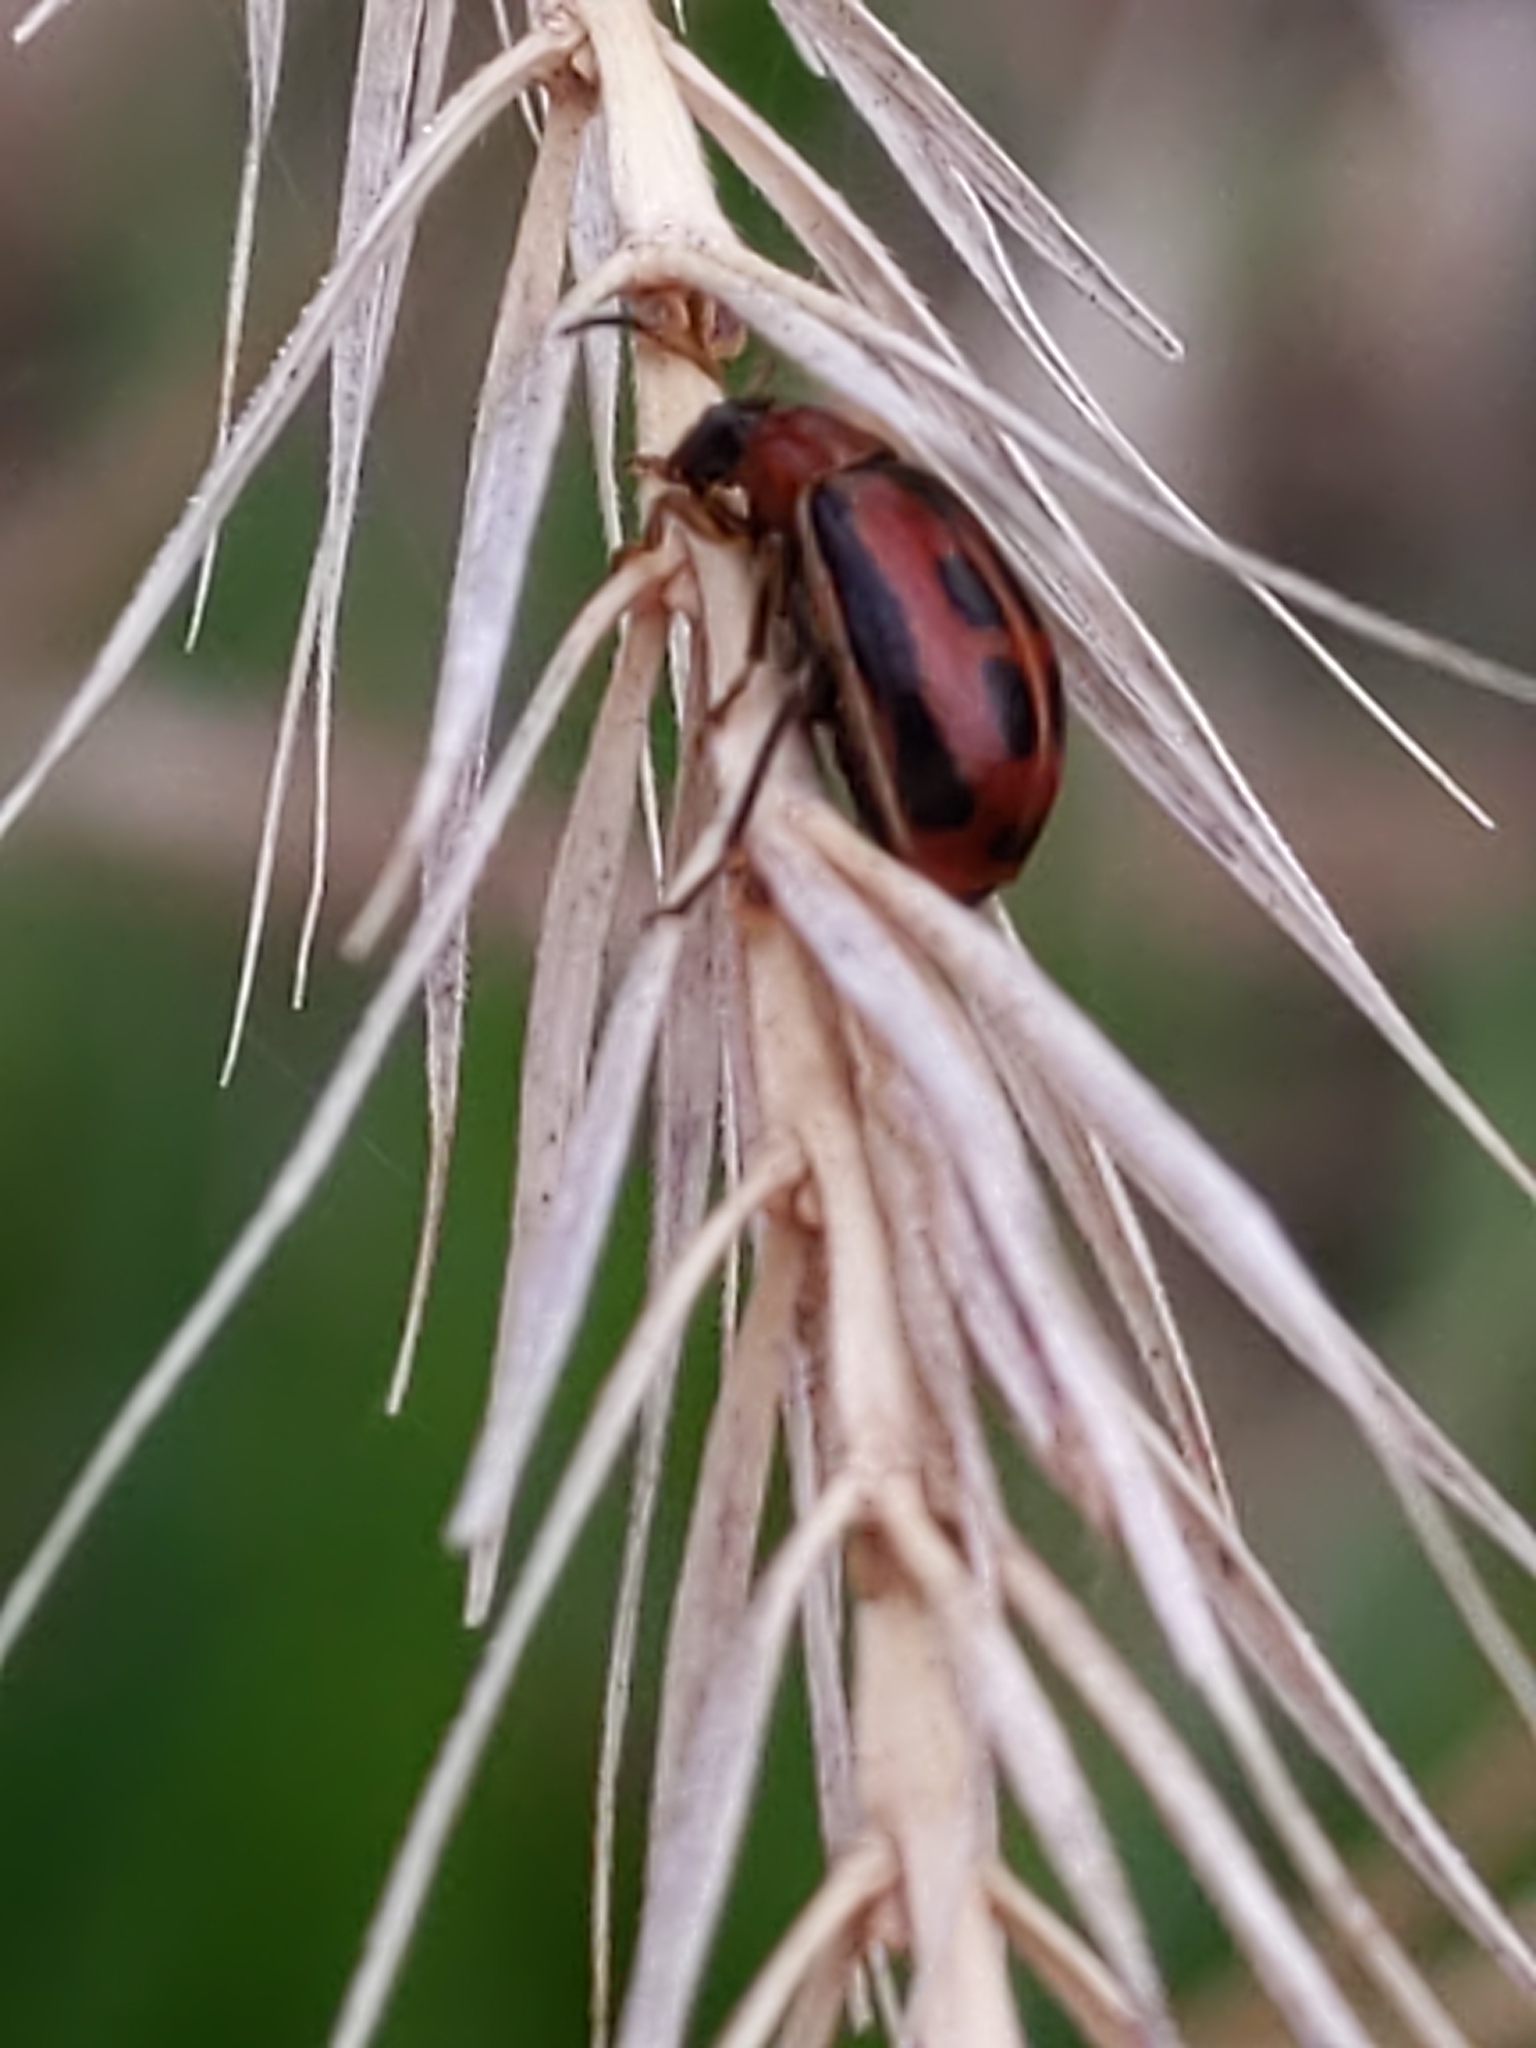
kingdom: Animalia
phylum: Arthropoda
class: Insecta
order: Coleoptera
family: Chrysomelidae
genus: Cerotoma
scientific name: Cerotoma trifurcata
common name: Bean leaf beetle
